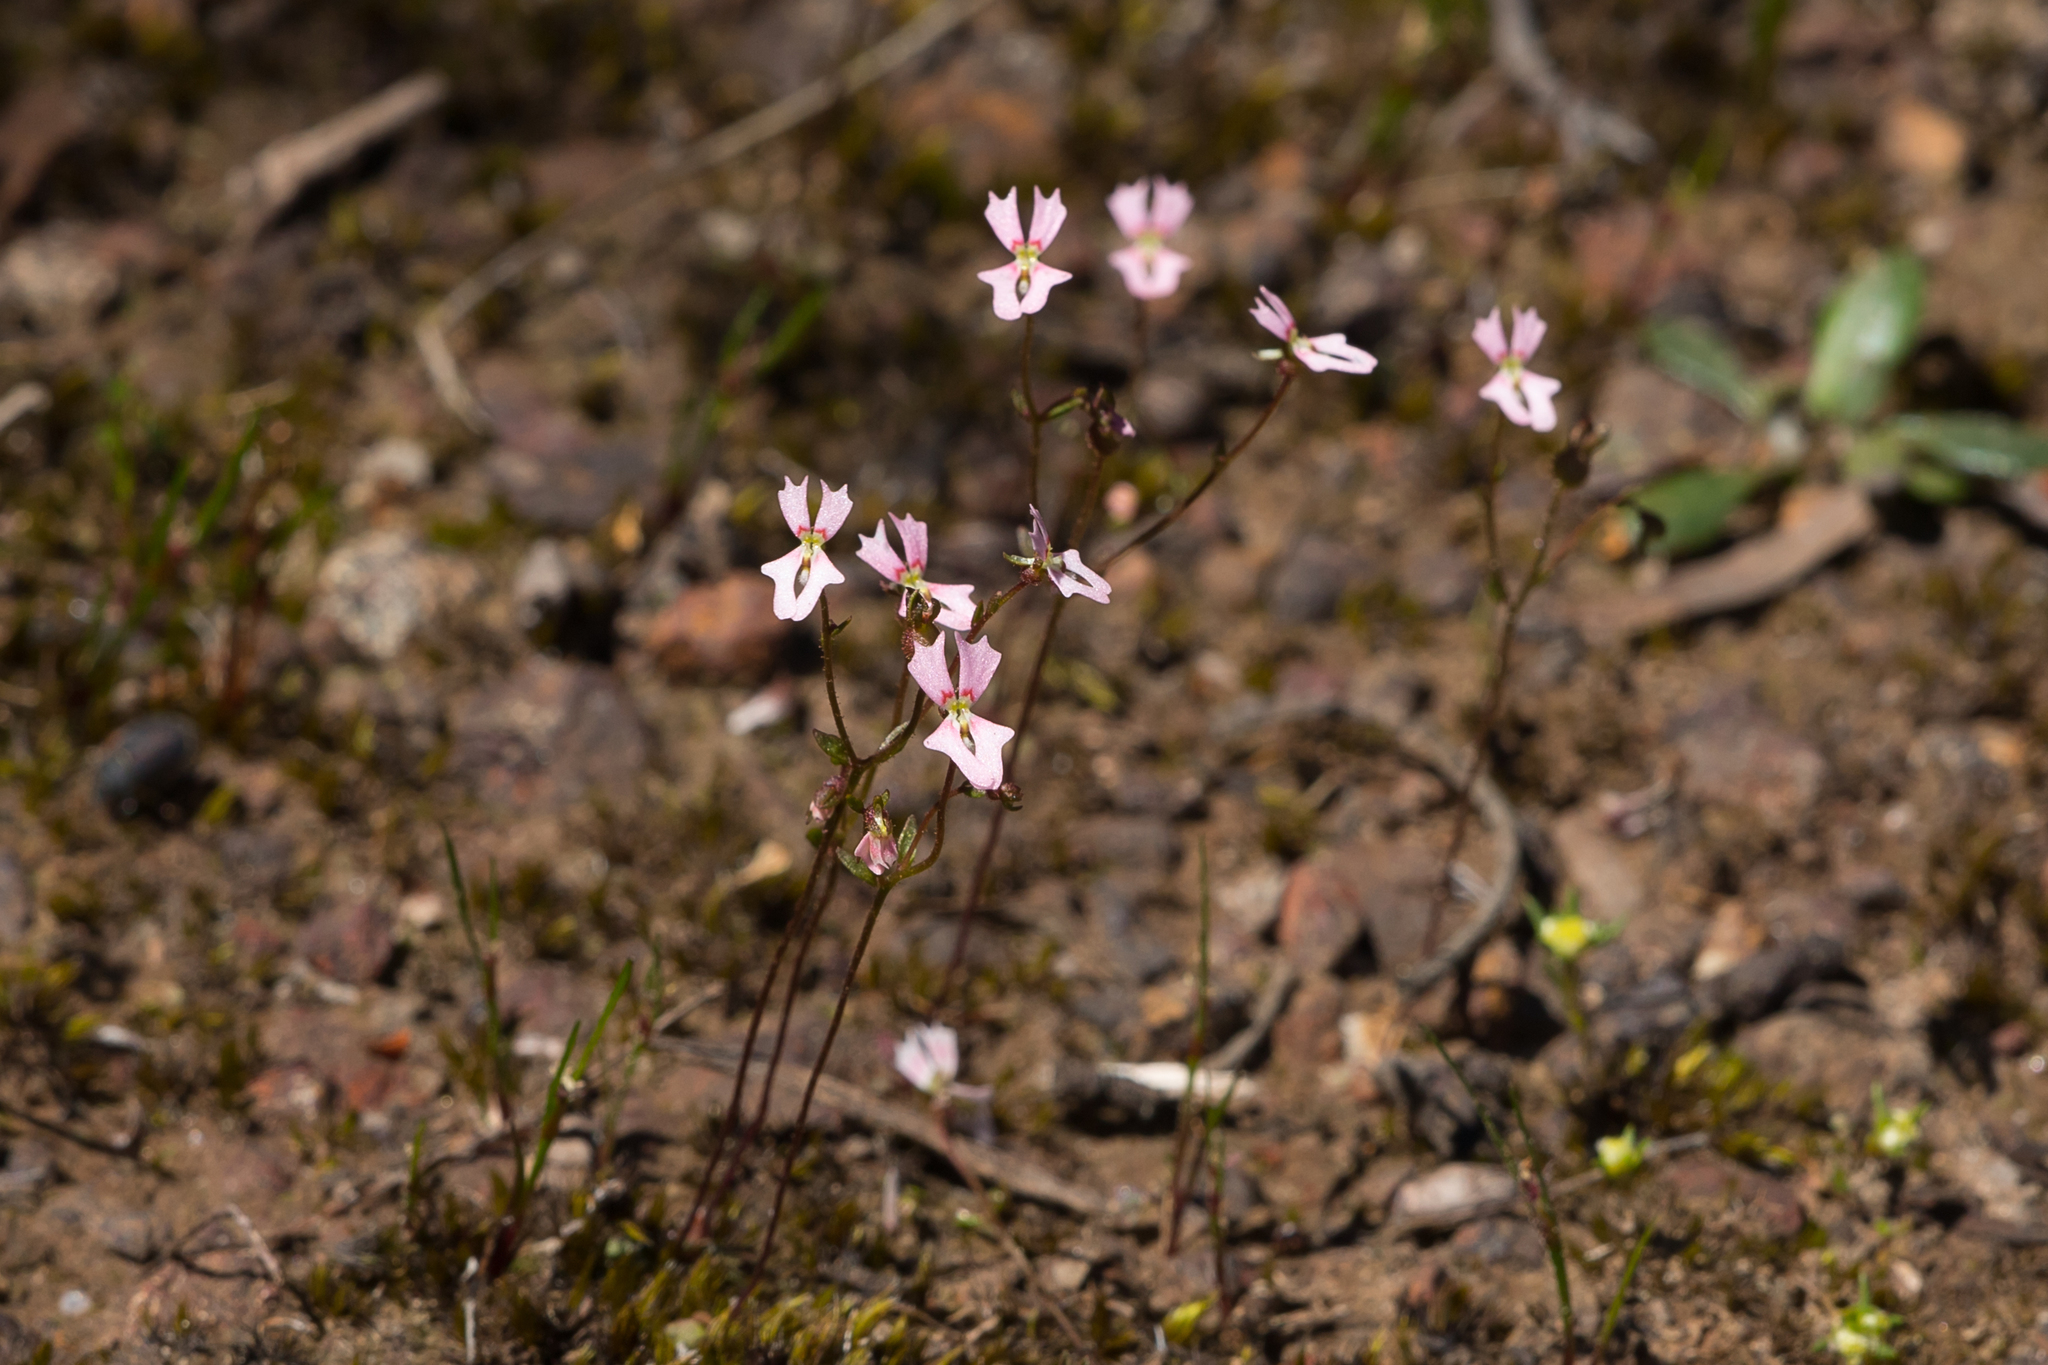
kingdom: Plantae
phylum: Tracheophyta
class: Magnoliopsida
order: Asterales
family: Stylidiaceae
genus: Stylidium
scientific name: Stylidium calcaratum
